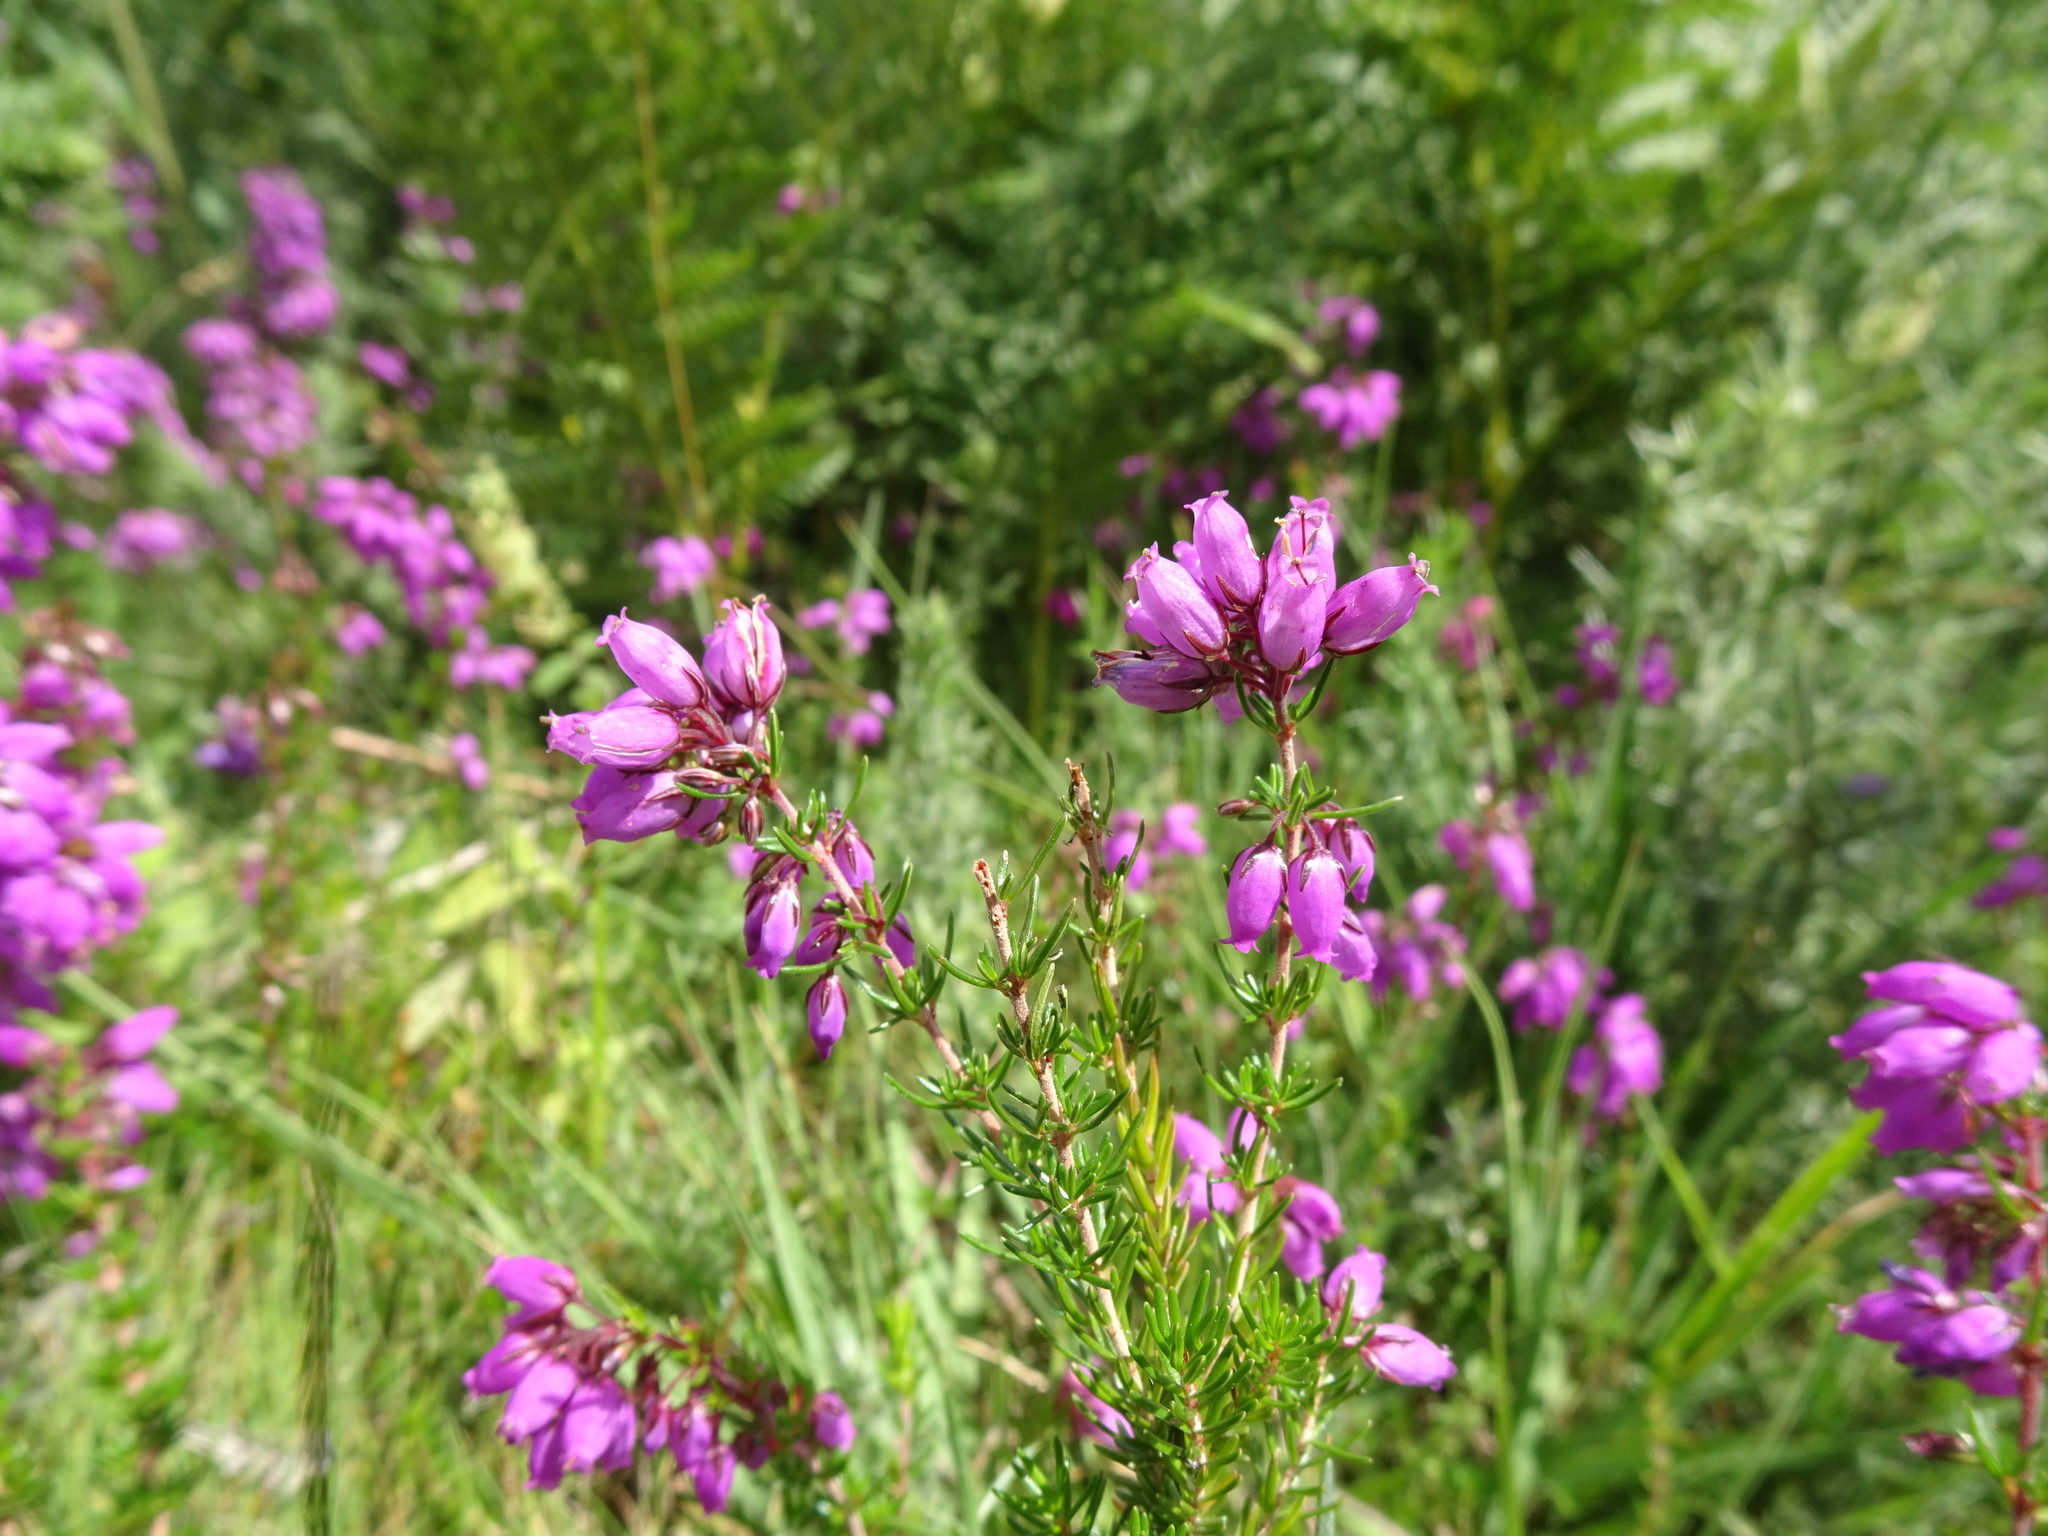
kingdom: Plantae
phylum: Tracheophyta
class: Magnoliopsida
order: Ericales
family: Ericaceae
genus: Erica
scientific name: Erica cinerea
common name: Bell heather
